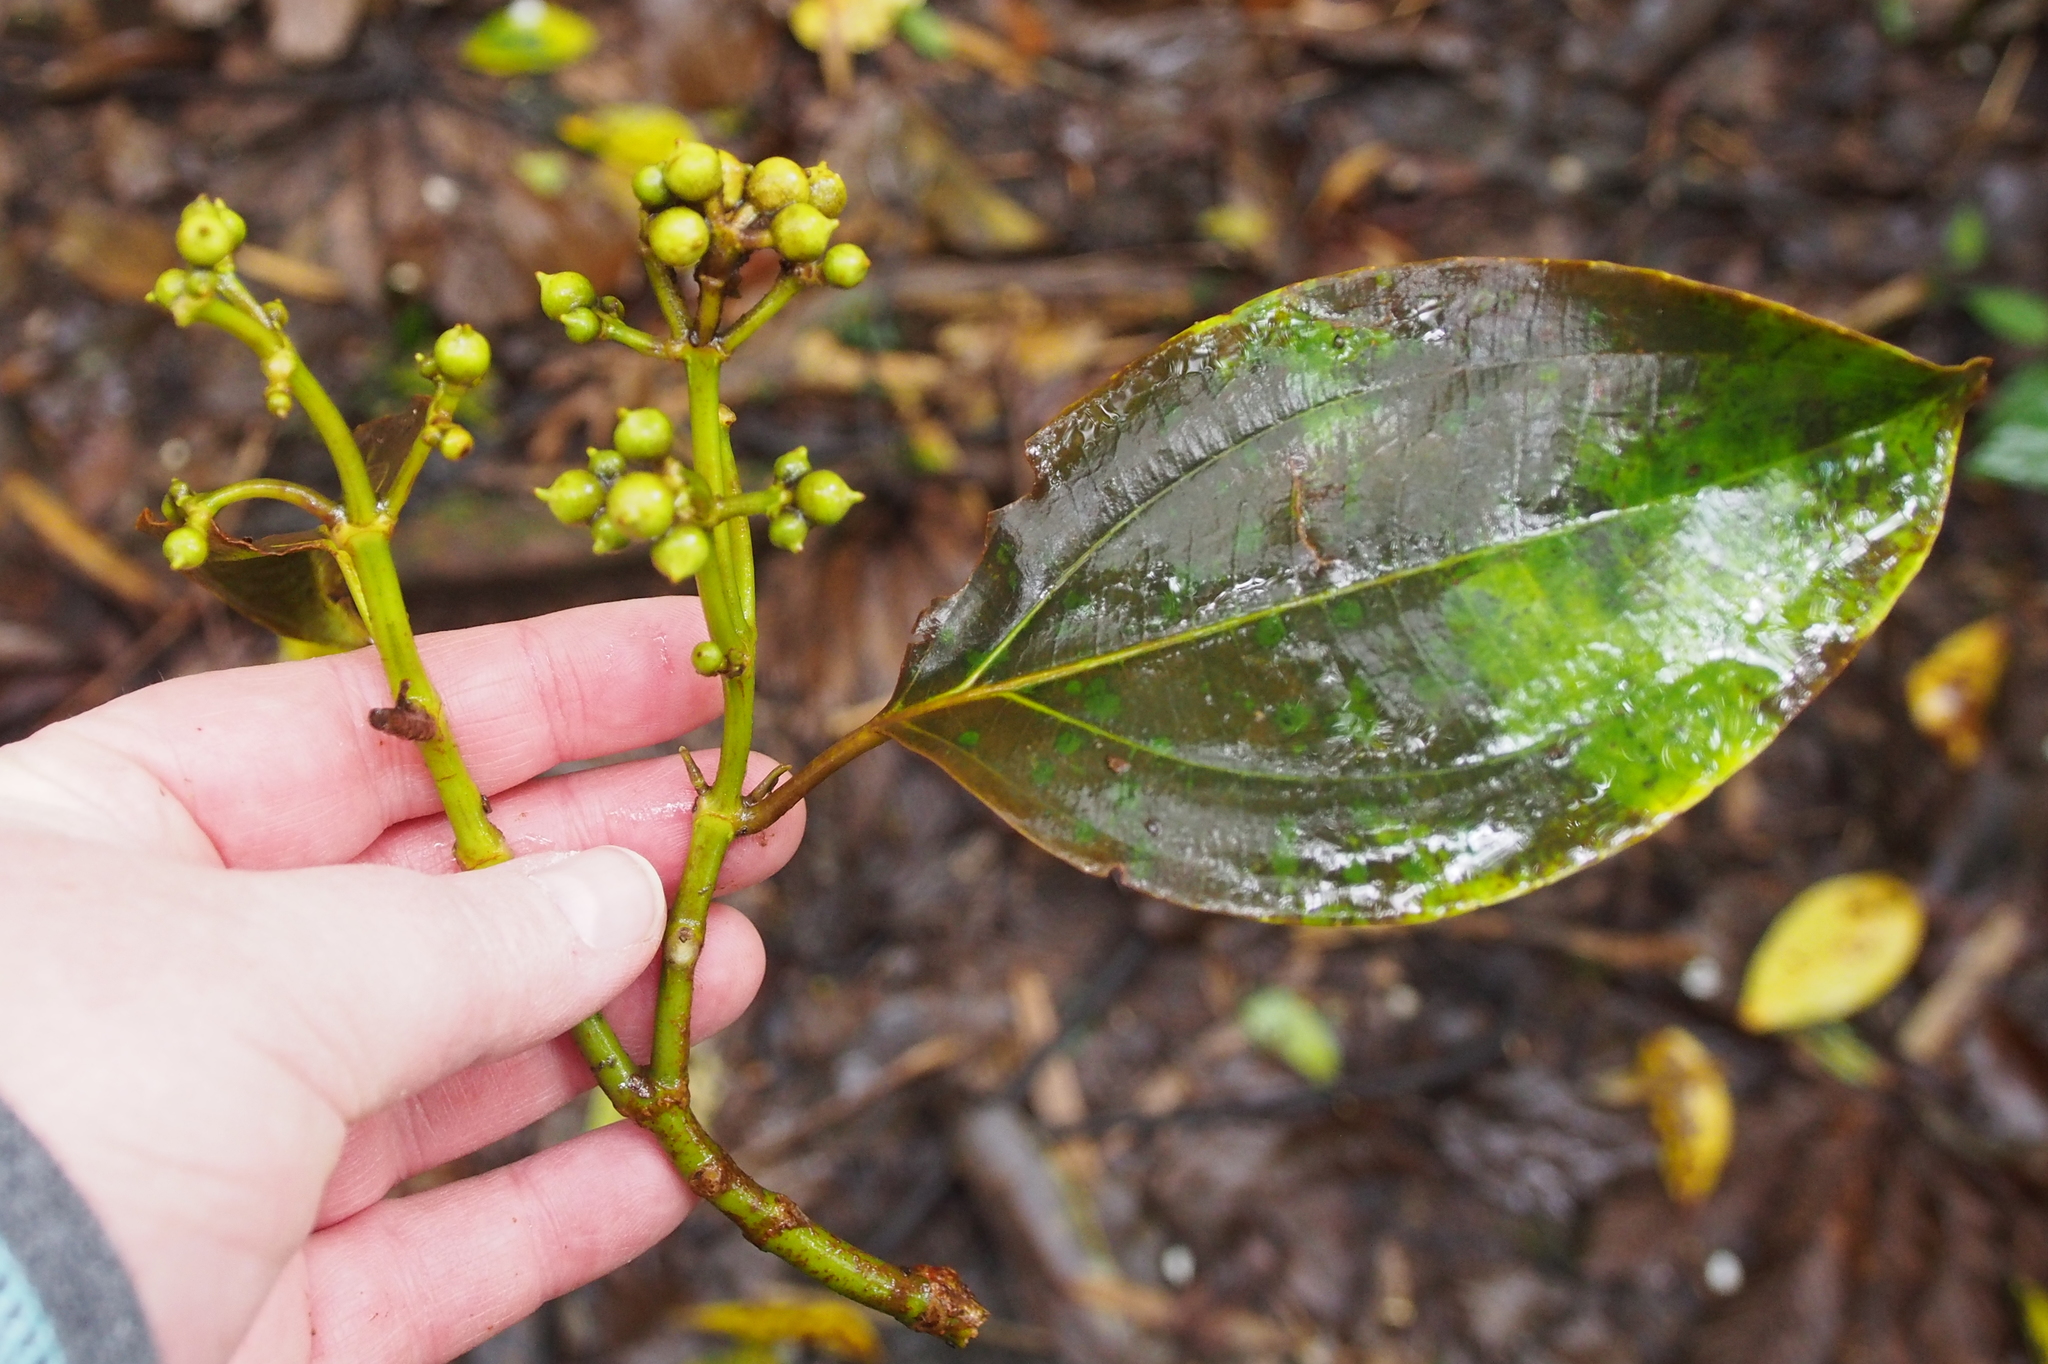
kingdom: Plantae
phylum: Tracheophyta
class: Magnoliopsida
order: Myrtales
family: Melastomataceae
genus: Miconia
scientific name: Miconia oerstediana
